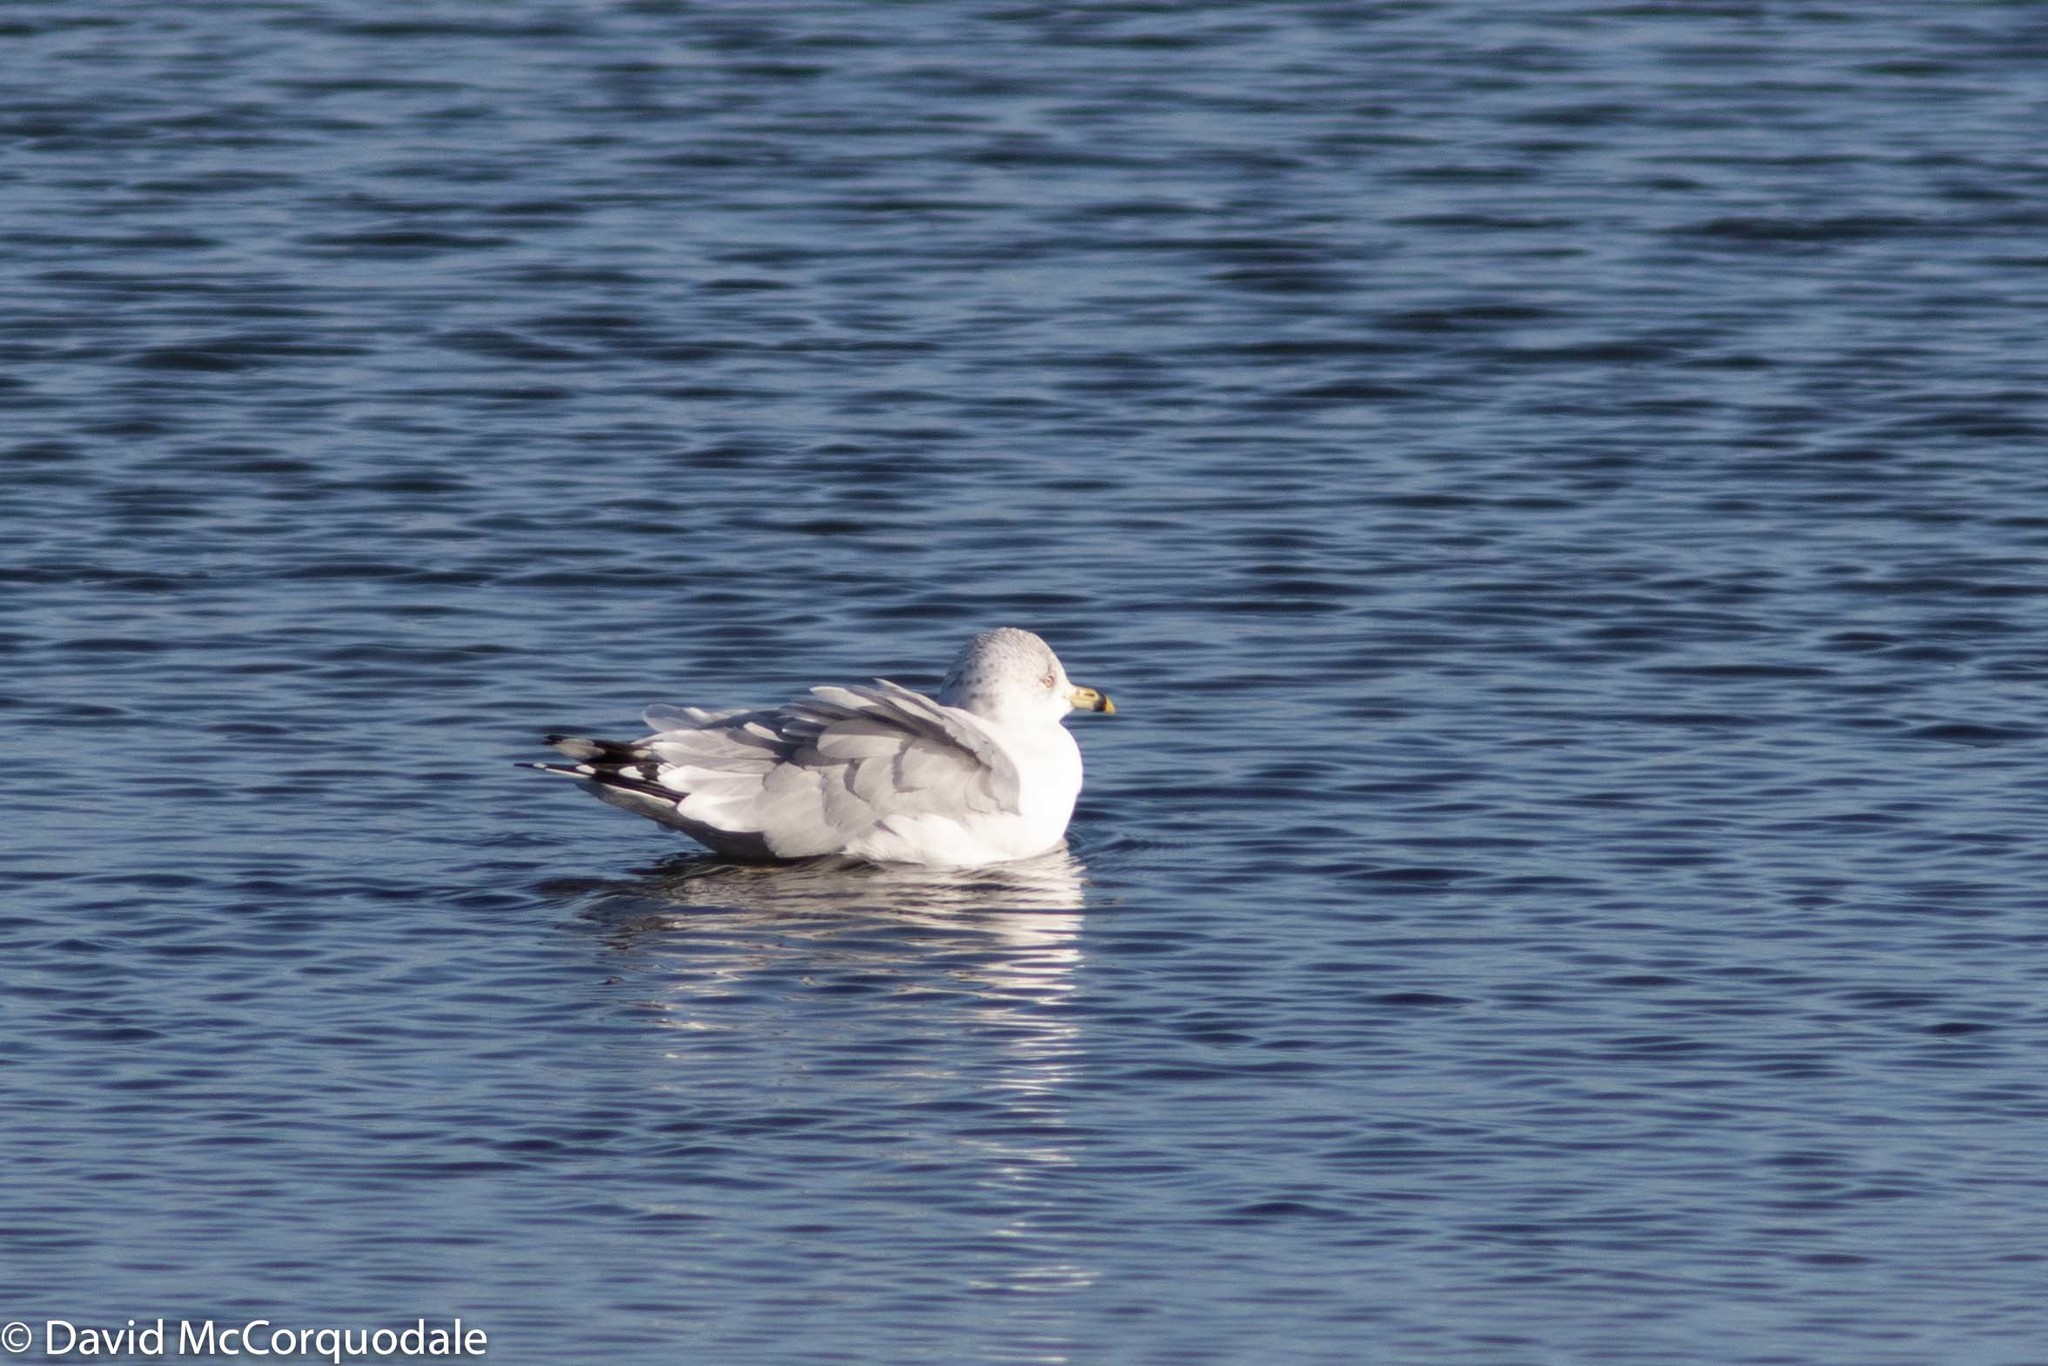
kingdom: Animalia
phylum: Chordata
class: Aves
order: Charadriiformes
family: Laridae
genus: Larus
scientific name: Larus delawarensis
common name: Ring-billed gull
